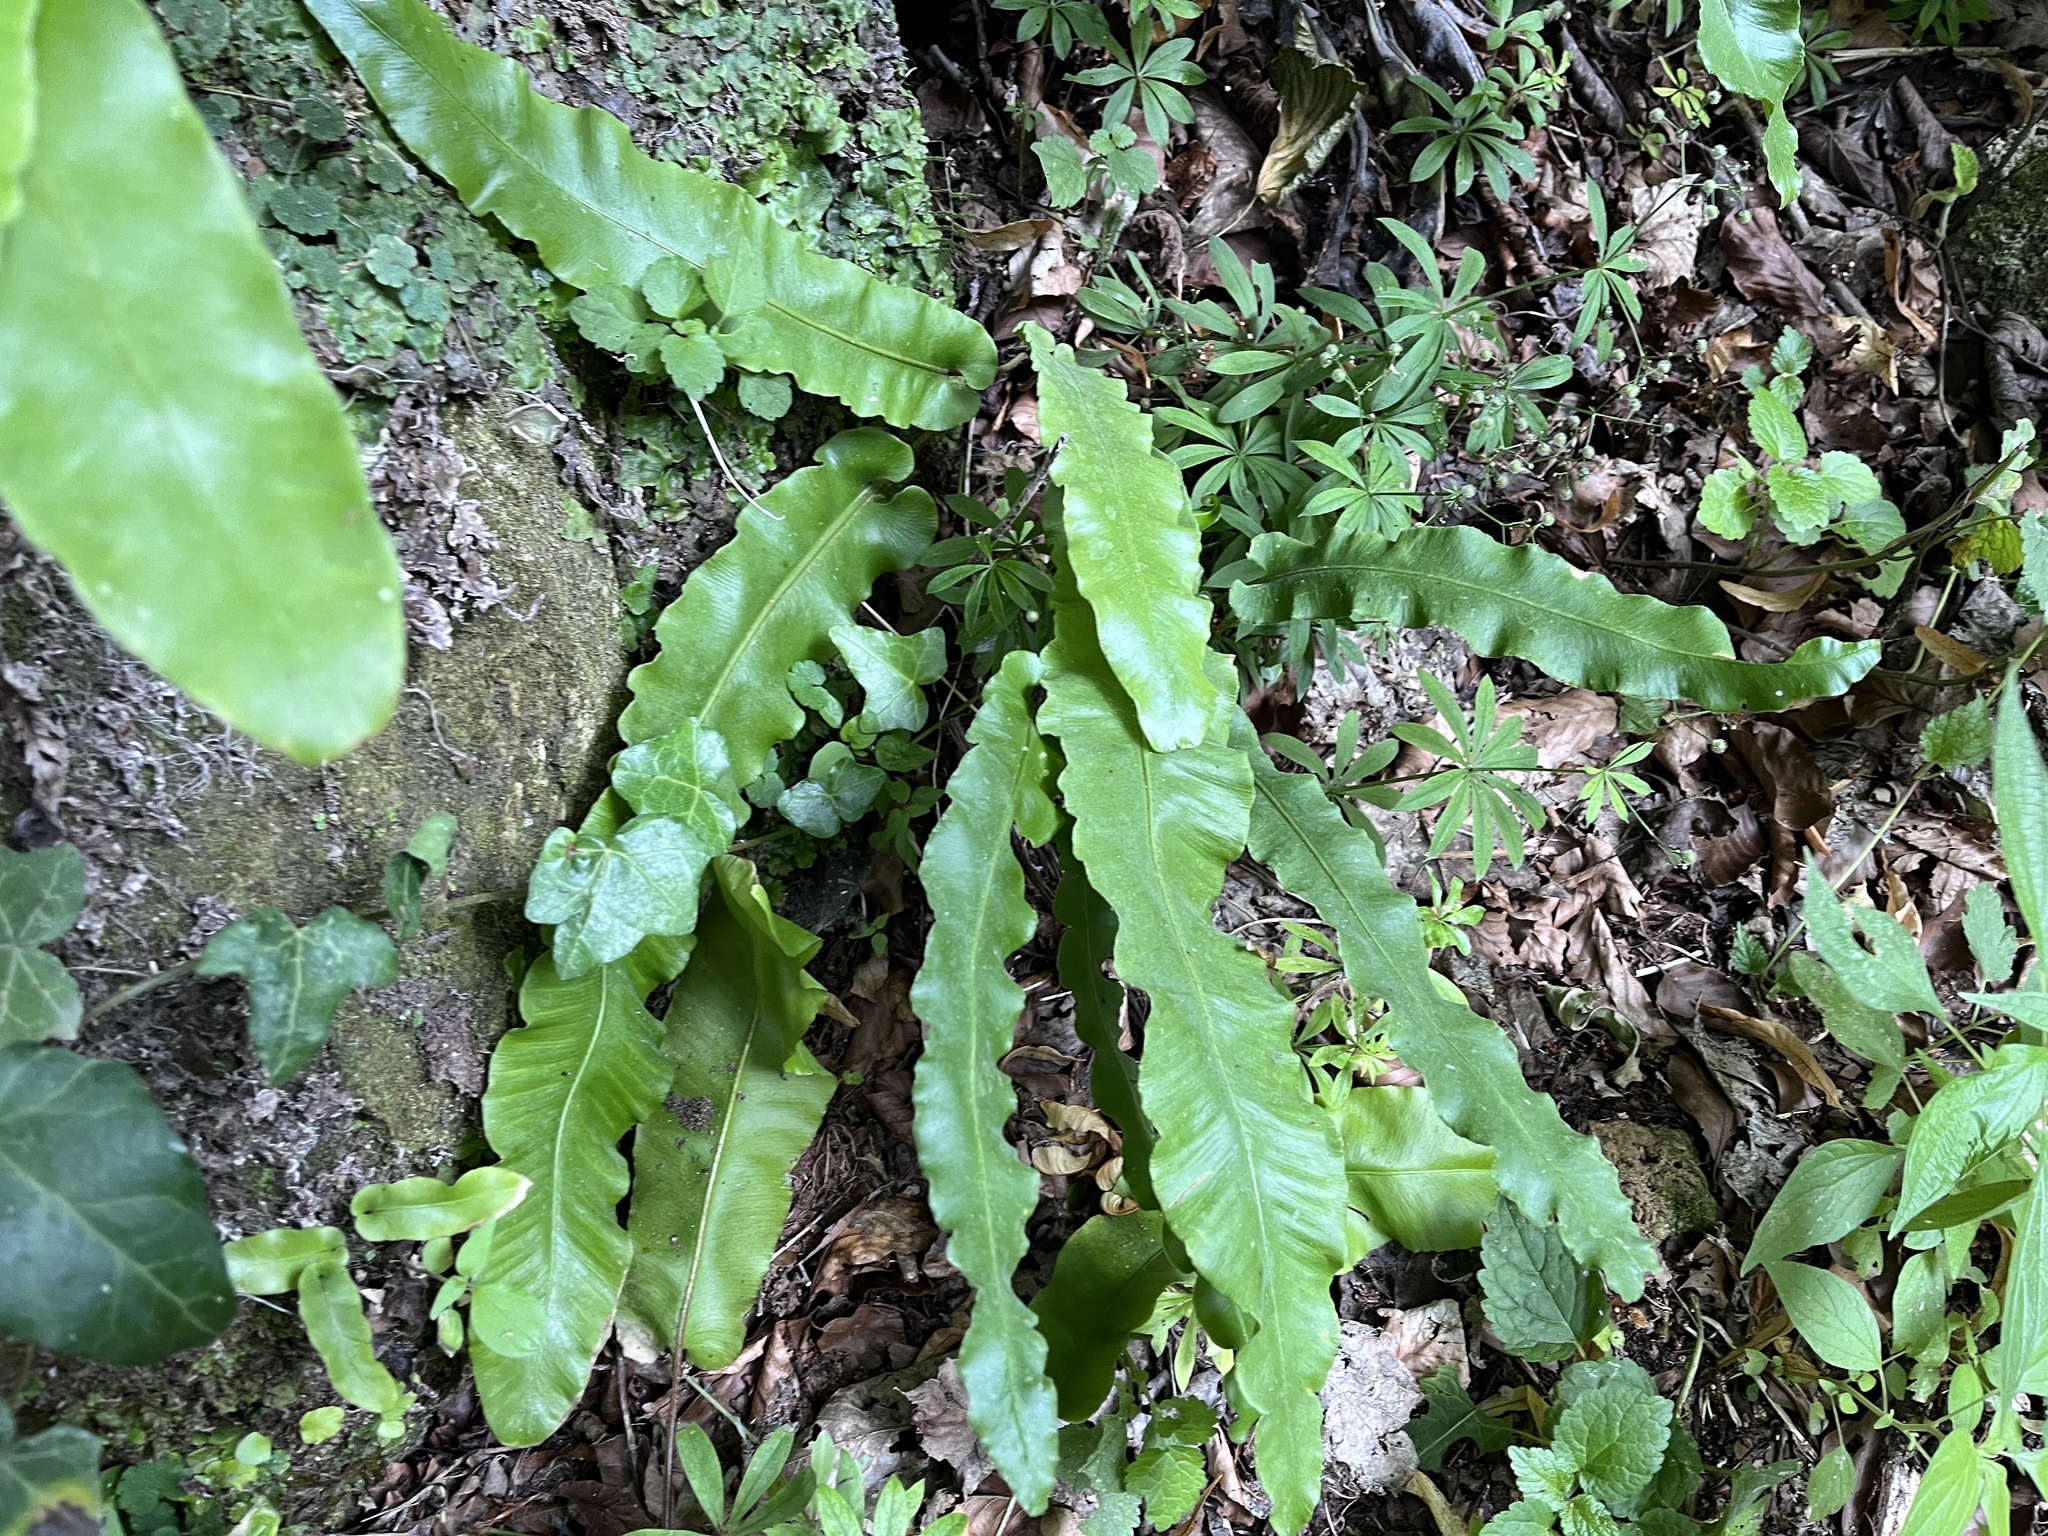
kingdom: Plantae
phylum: Tracheophyta
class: Polypodiopsida
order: Polypodiales
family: Aspleniaceae
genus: Asplenium
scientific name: Asplenium scolopendrium
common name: Hart's-tongue fern
